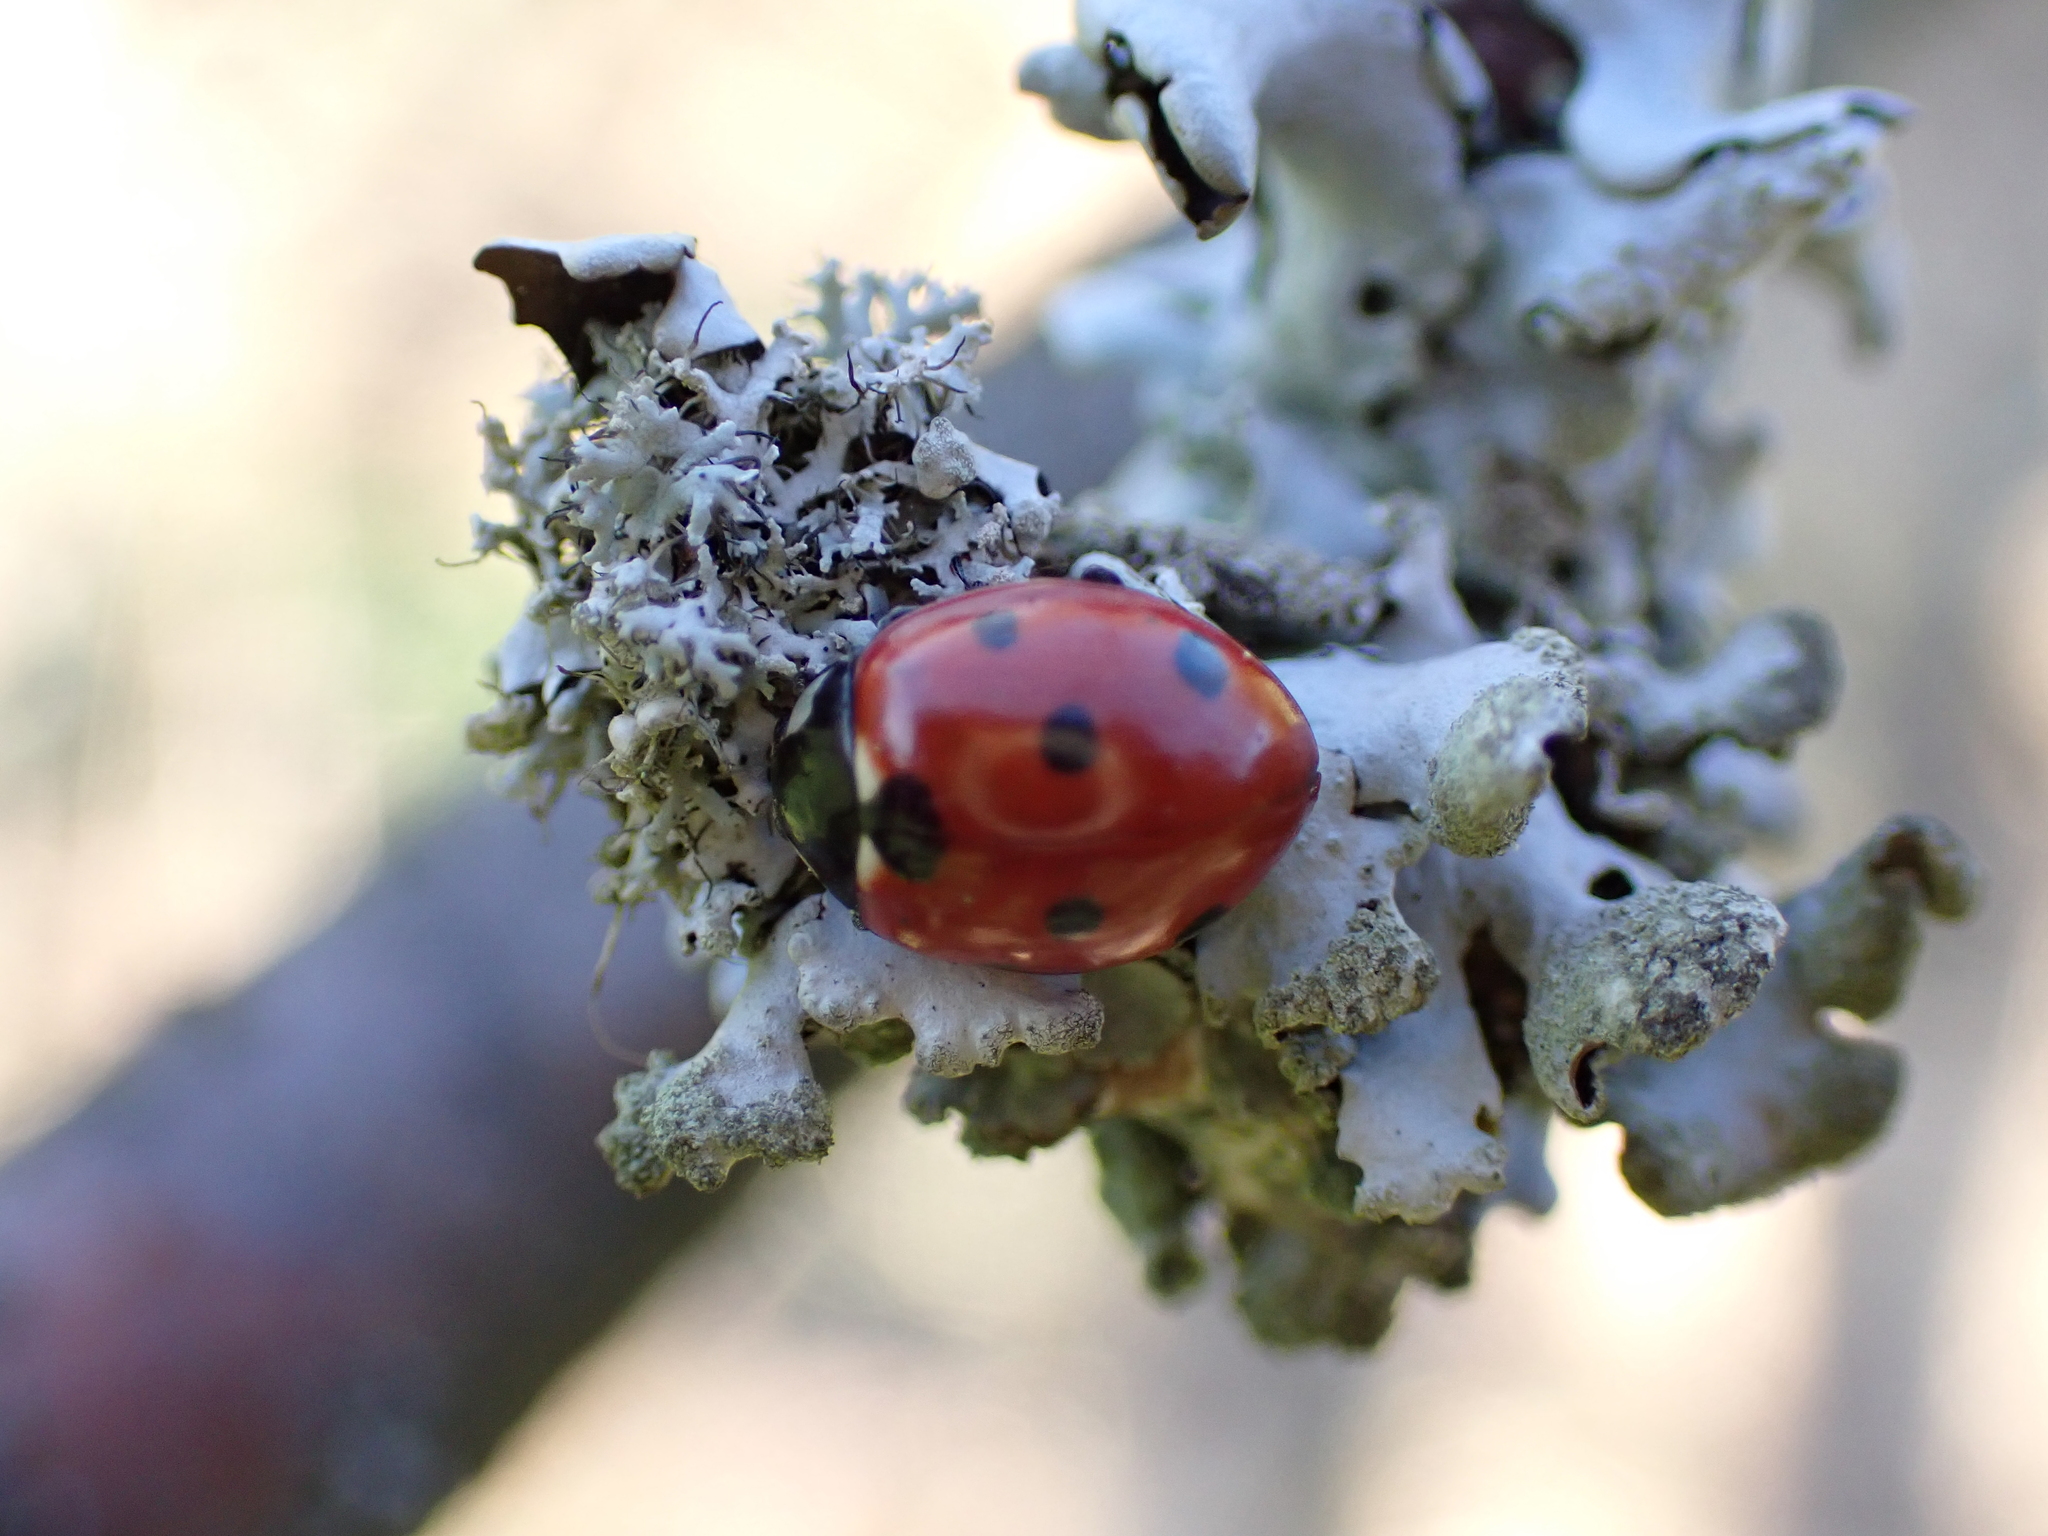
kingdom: Animalia
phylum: Arthropoda
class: Insecta
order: Coleoptera
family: Coccinellidae
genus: Coccinella
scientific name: Coccinella septempunctata
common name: Sevenspotted lady beetle
